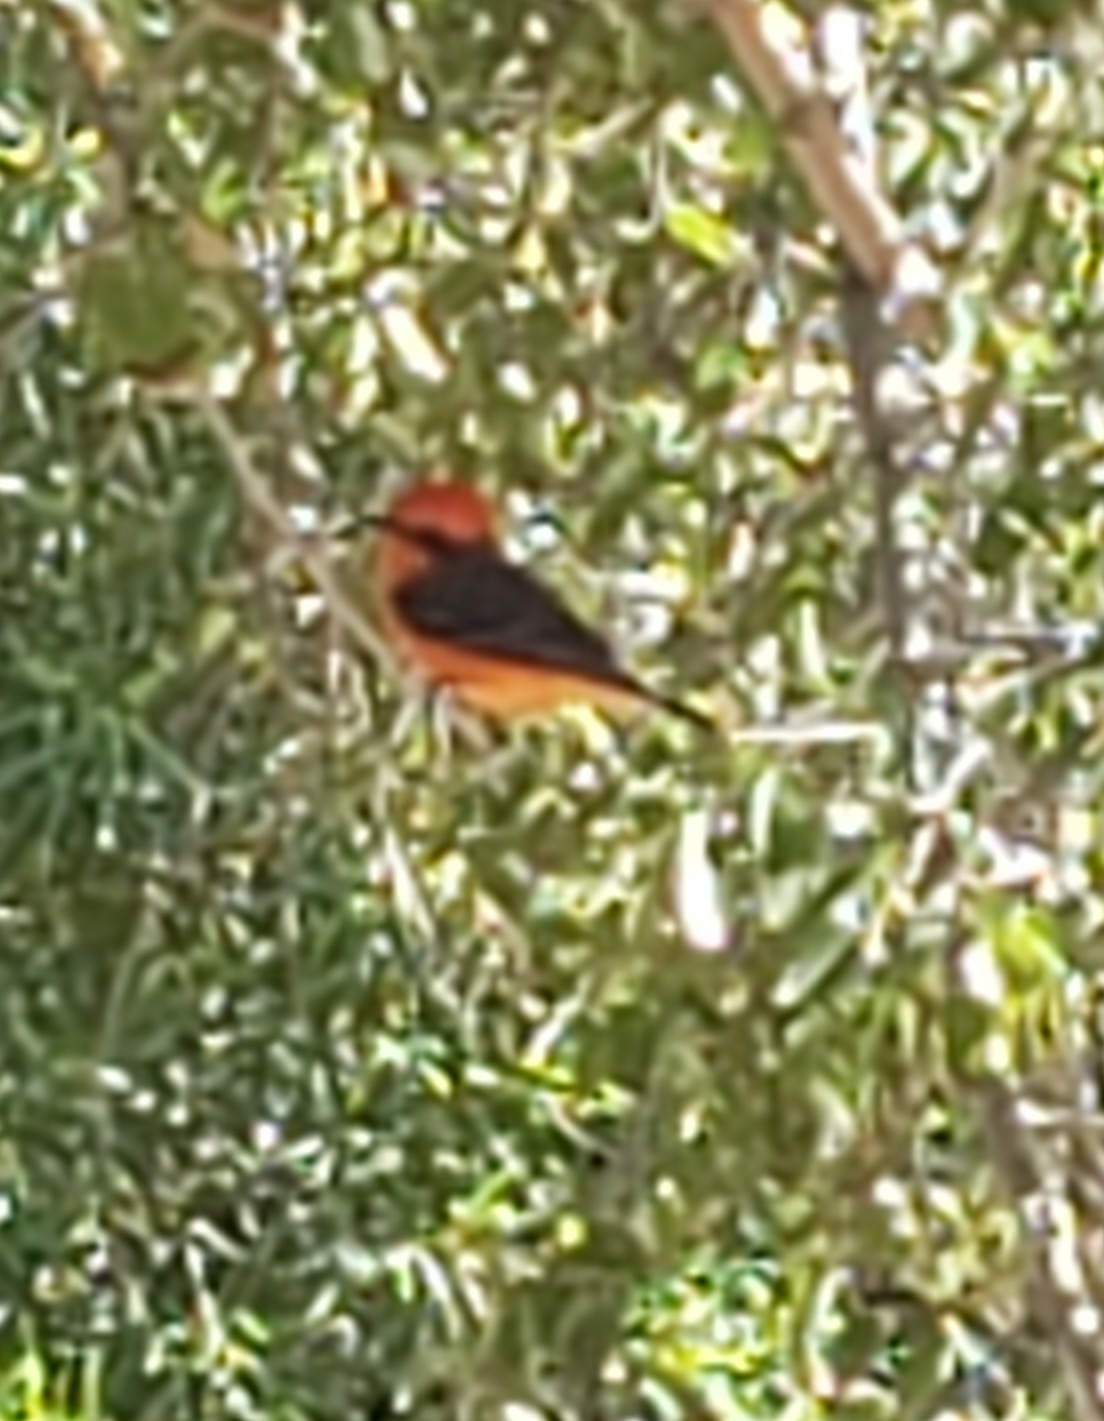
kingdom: Animalia
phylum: Chordata
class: Aves
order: Passeriformes
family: Tyrannidae
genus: Pyrocephalus
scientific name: Pyrocephalus rubinus
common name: Vermilion flycatcher
